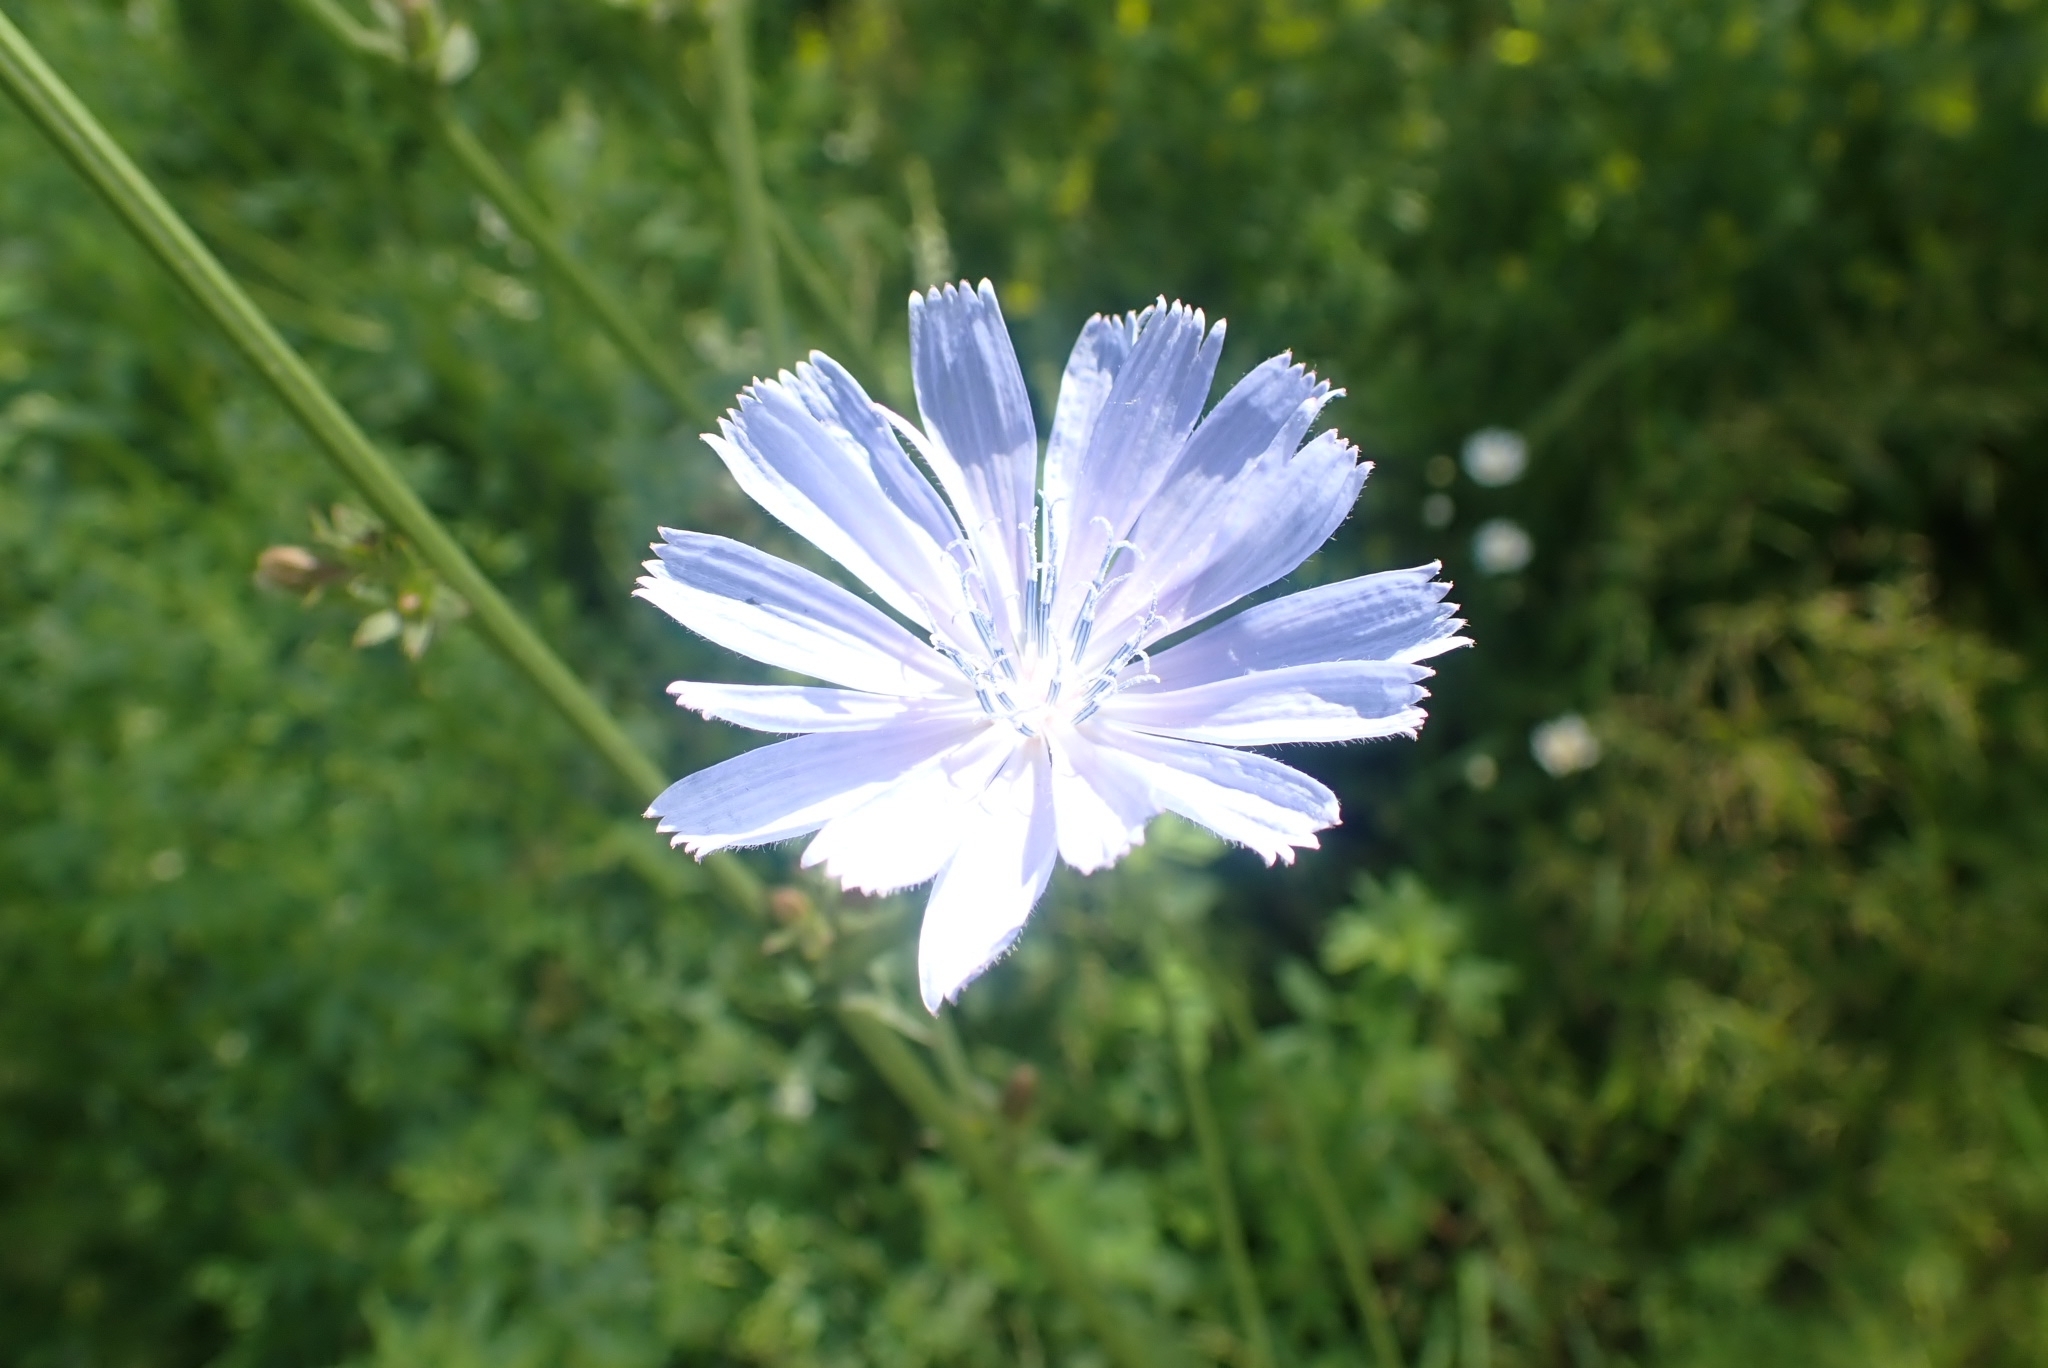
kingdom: Plantae
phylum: Tracheophyta
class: Magnoliopsida
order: Asterales
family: Asteraceae
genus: Cichorium
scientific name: Cichorium intybus
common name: Chicory
